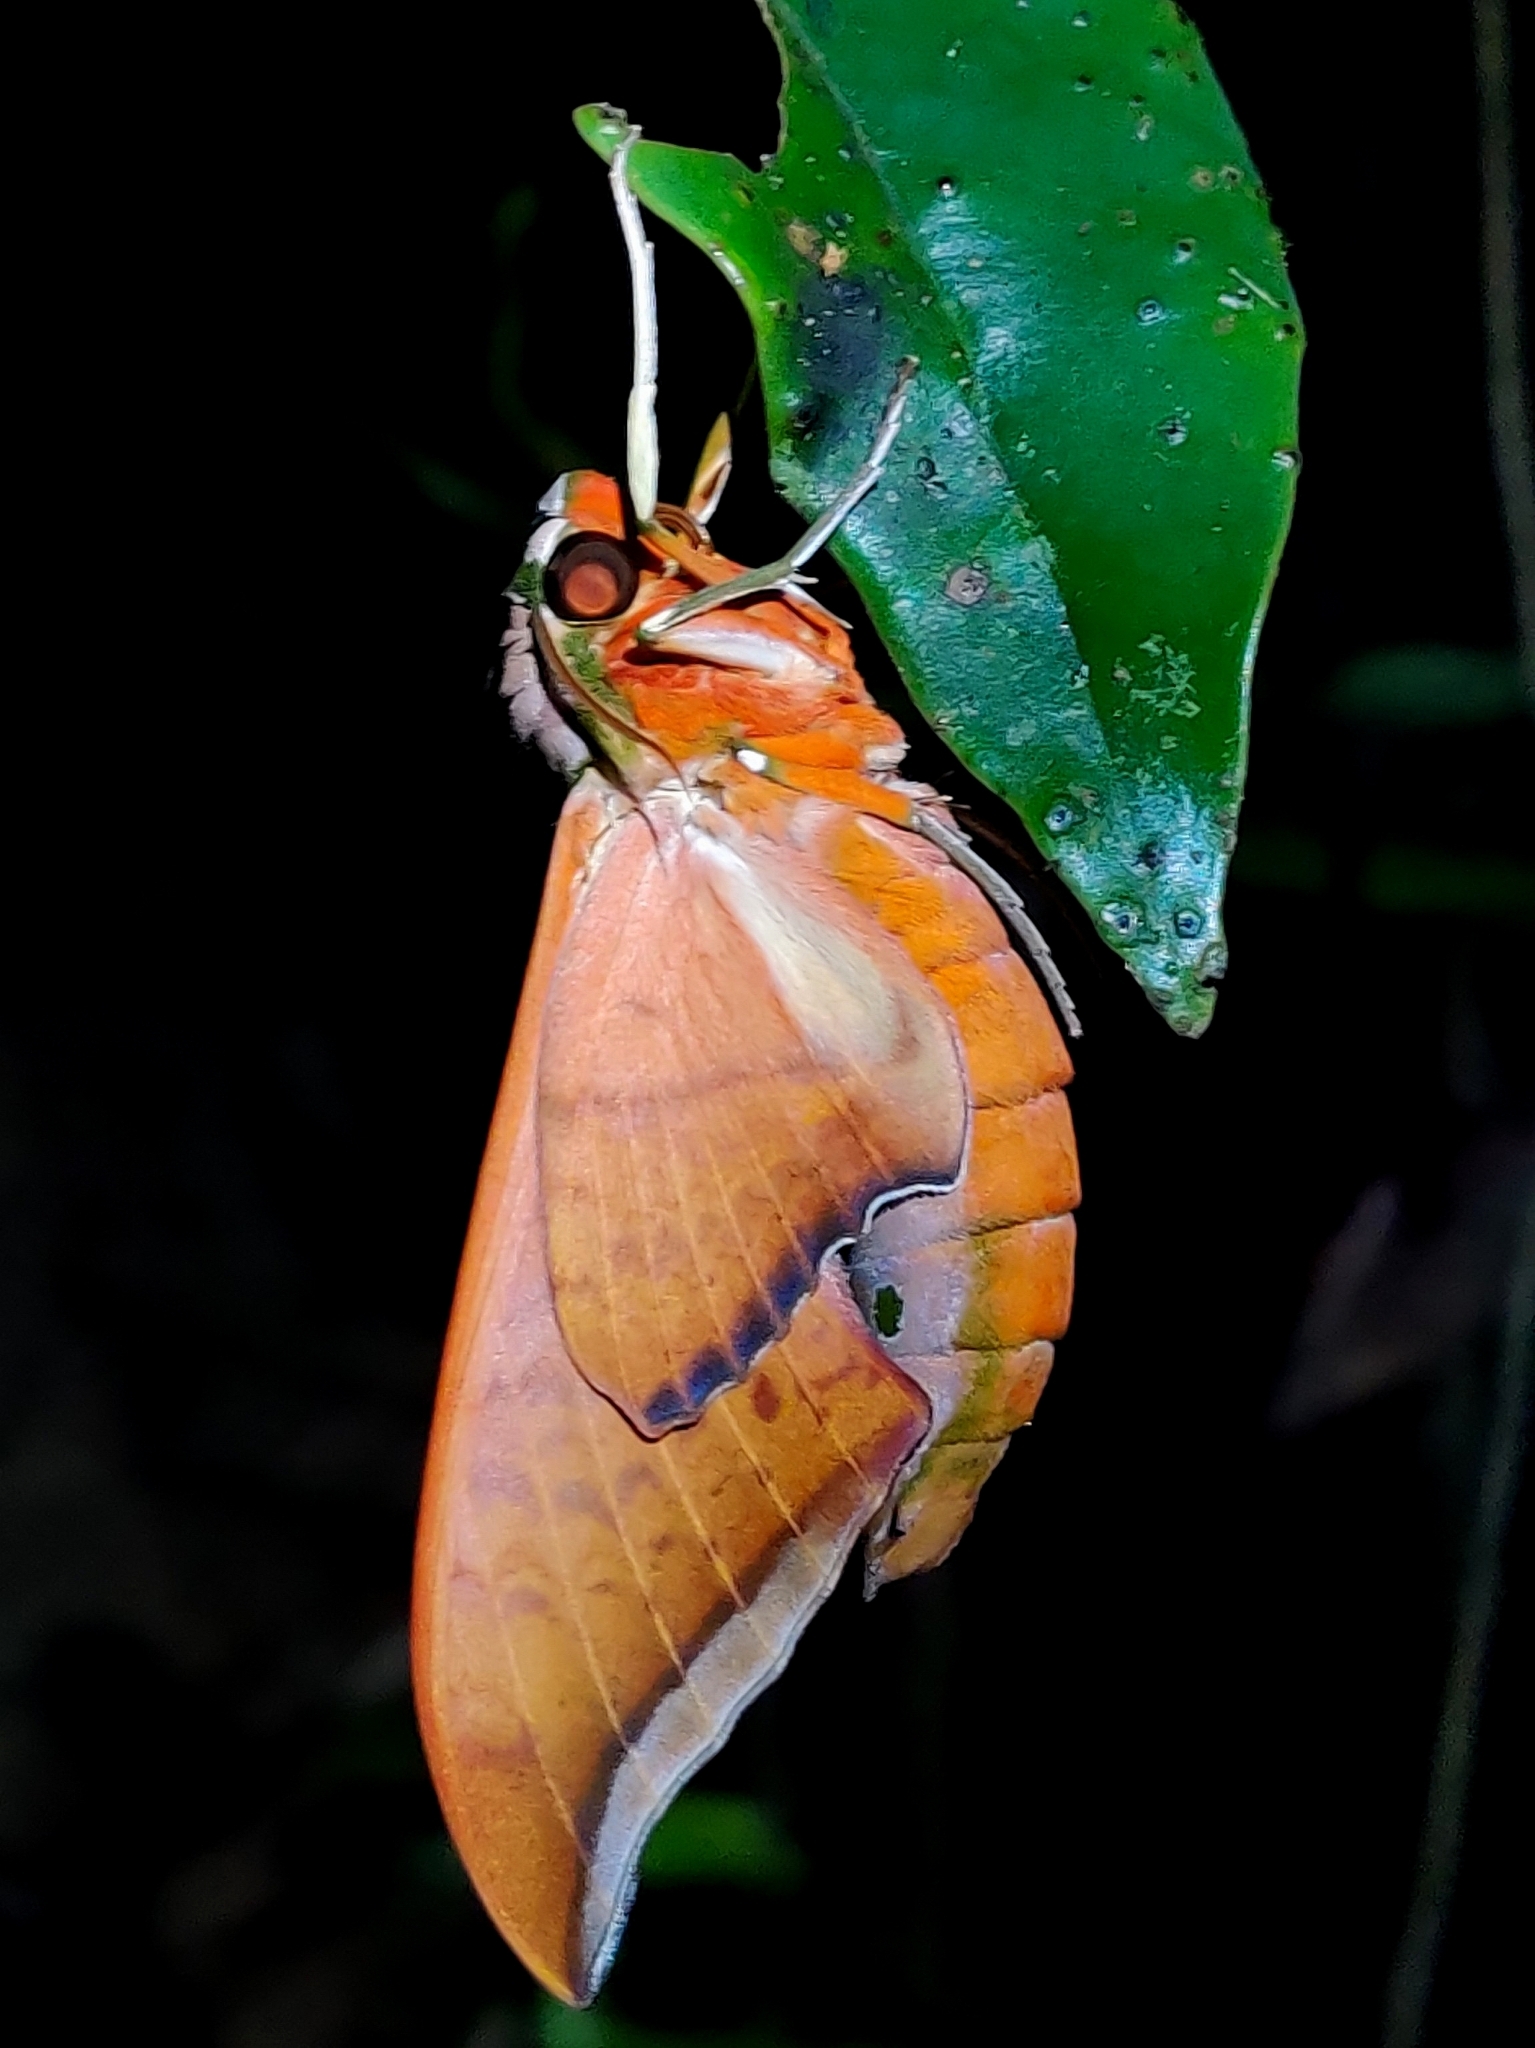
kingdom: Animalia
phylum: Arthropoda
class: Insecta
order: Lepidoptera
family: Sphingidae
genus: Ambulyx
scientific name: Ambulyx moorei
